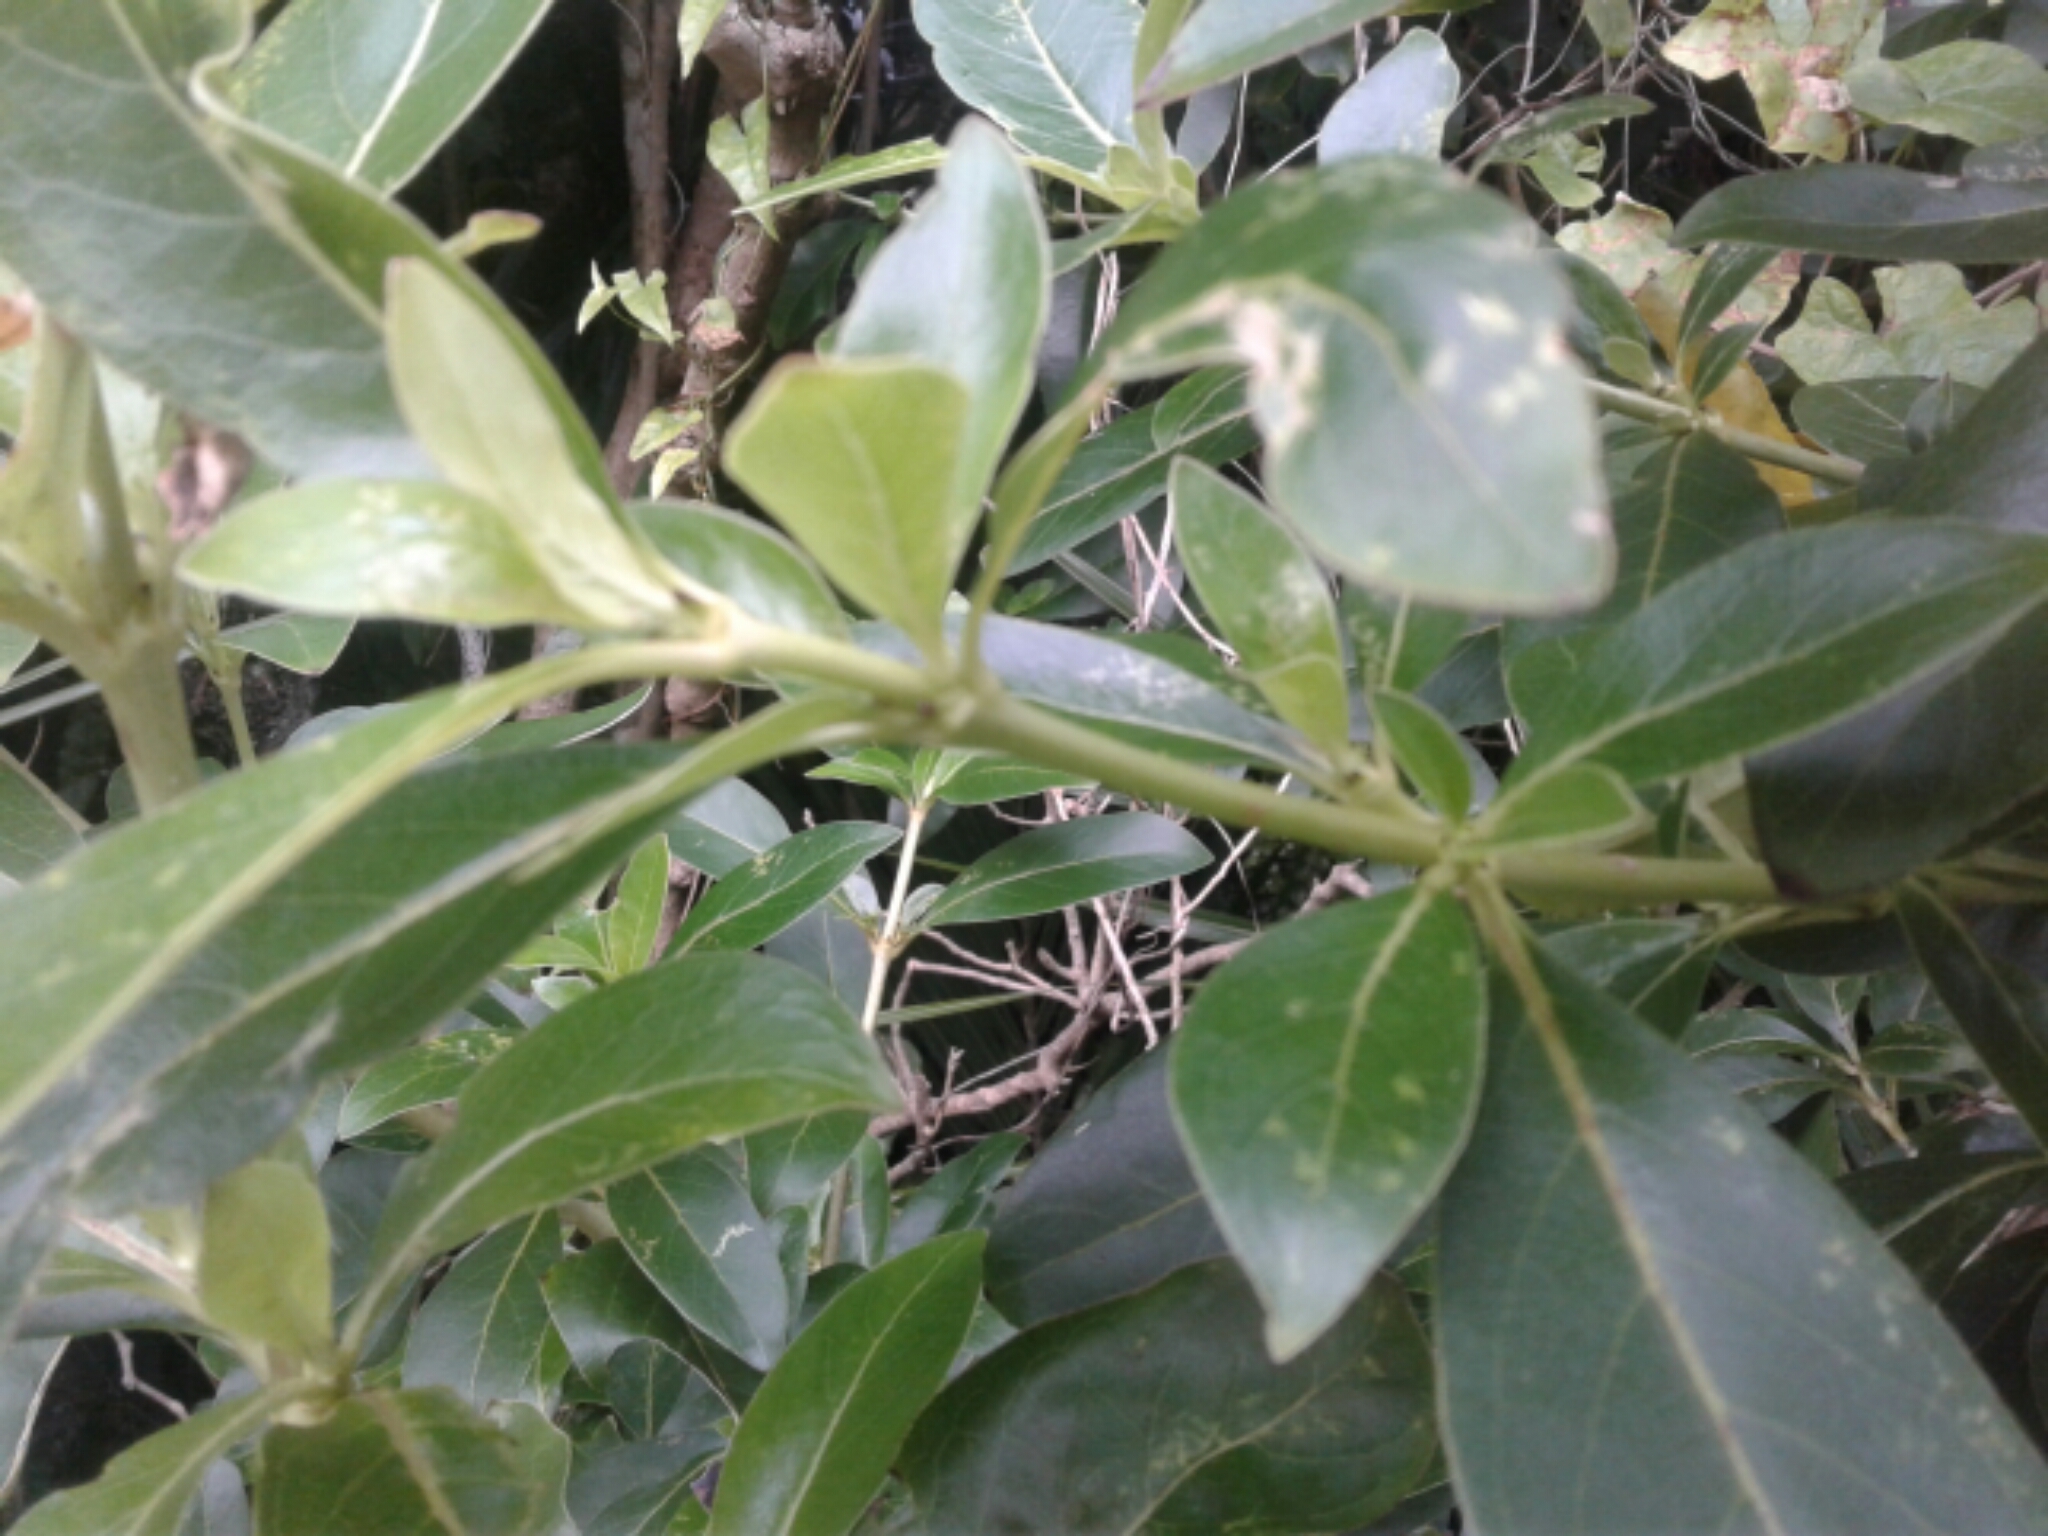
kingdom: Plantae
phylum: Tracheophyta
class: Magnoliopsida
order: Gentianales
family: Rubiaceae
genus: Coprosma
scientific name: Coprosma robusta
